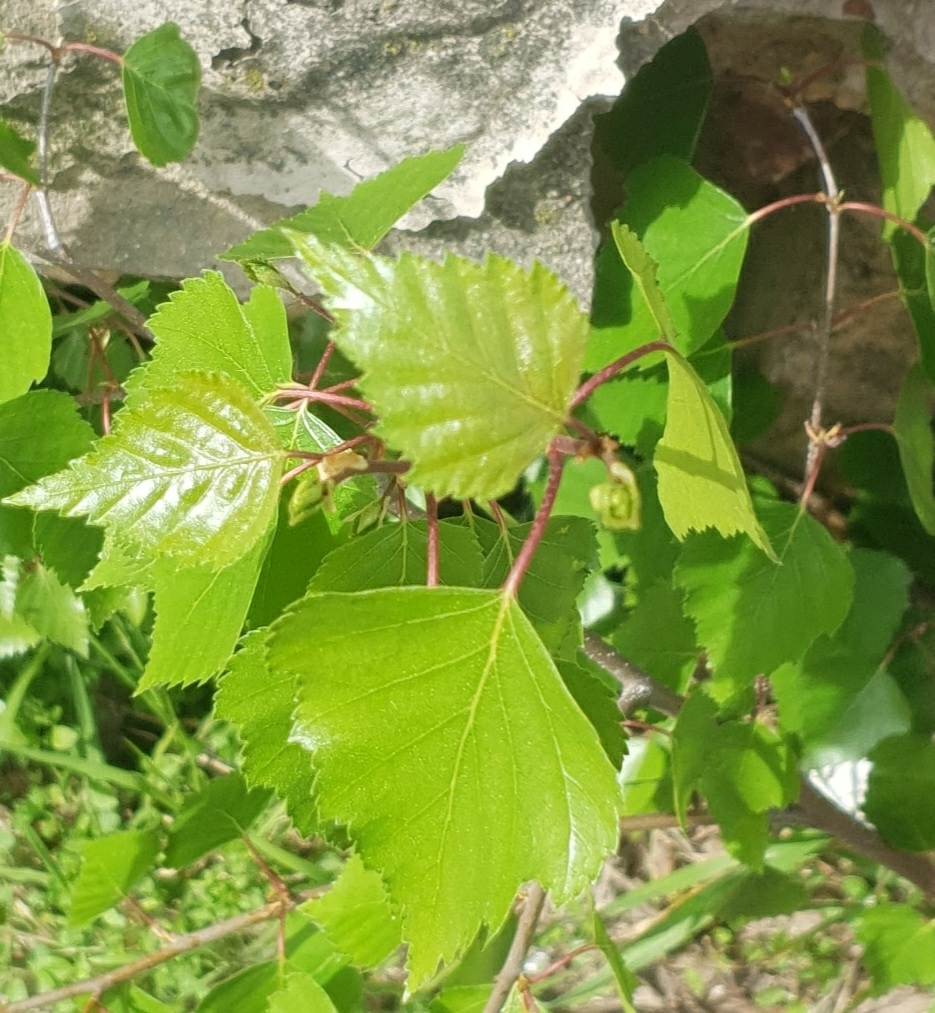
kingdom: Plantae
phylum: Tracheophyta
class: Magnoliopsida
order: Fagales
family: Betulaceae
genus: Betula
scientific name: Betula pendula
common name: Silver birch
